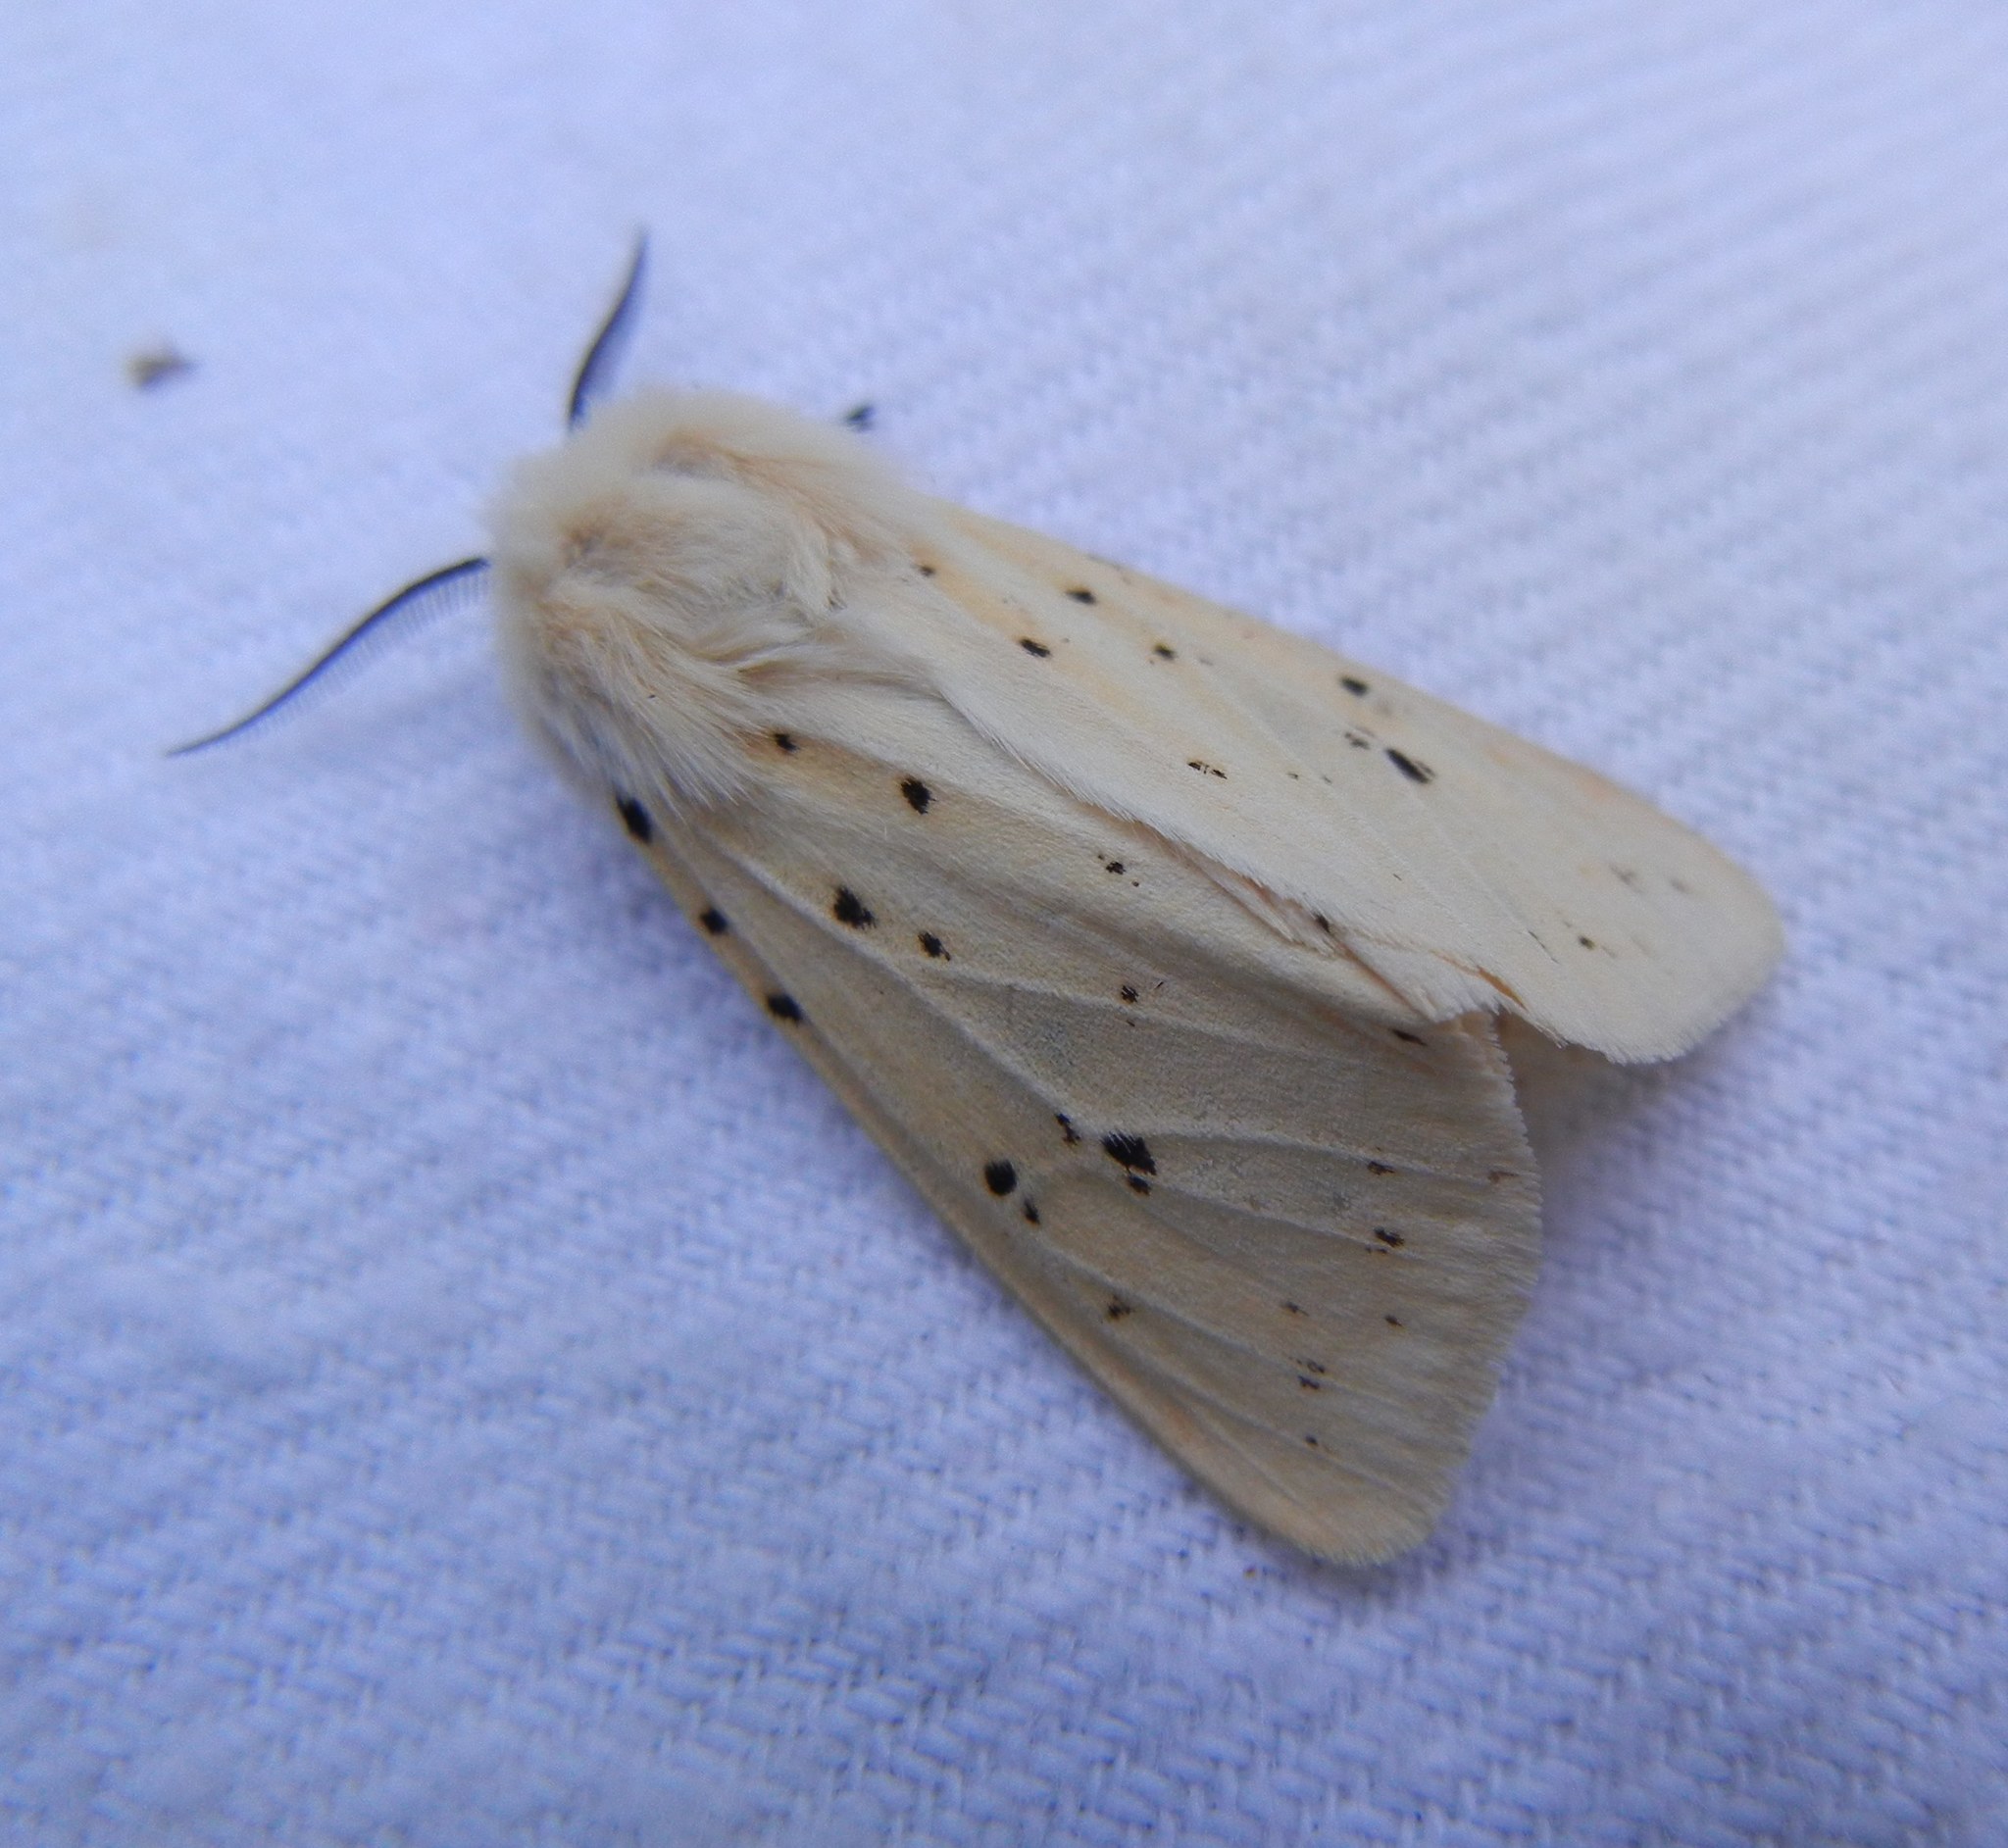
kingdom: Animalia
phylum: Arthropoda
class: Insecta
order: Lepidoptera
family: Erebidae
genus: Spilosoma
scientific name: Spilosoma lubricipeda
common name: White ermine
